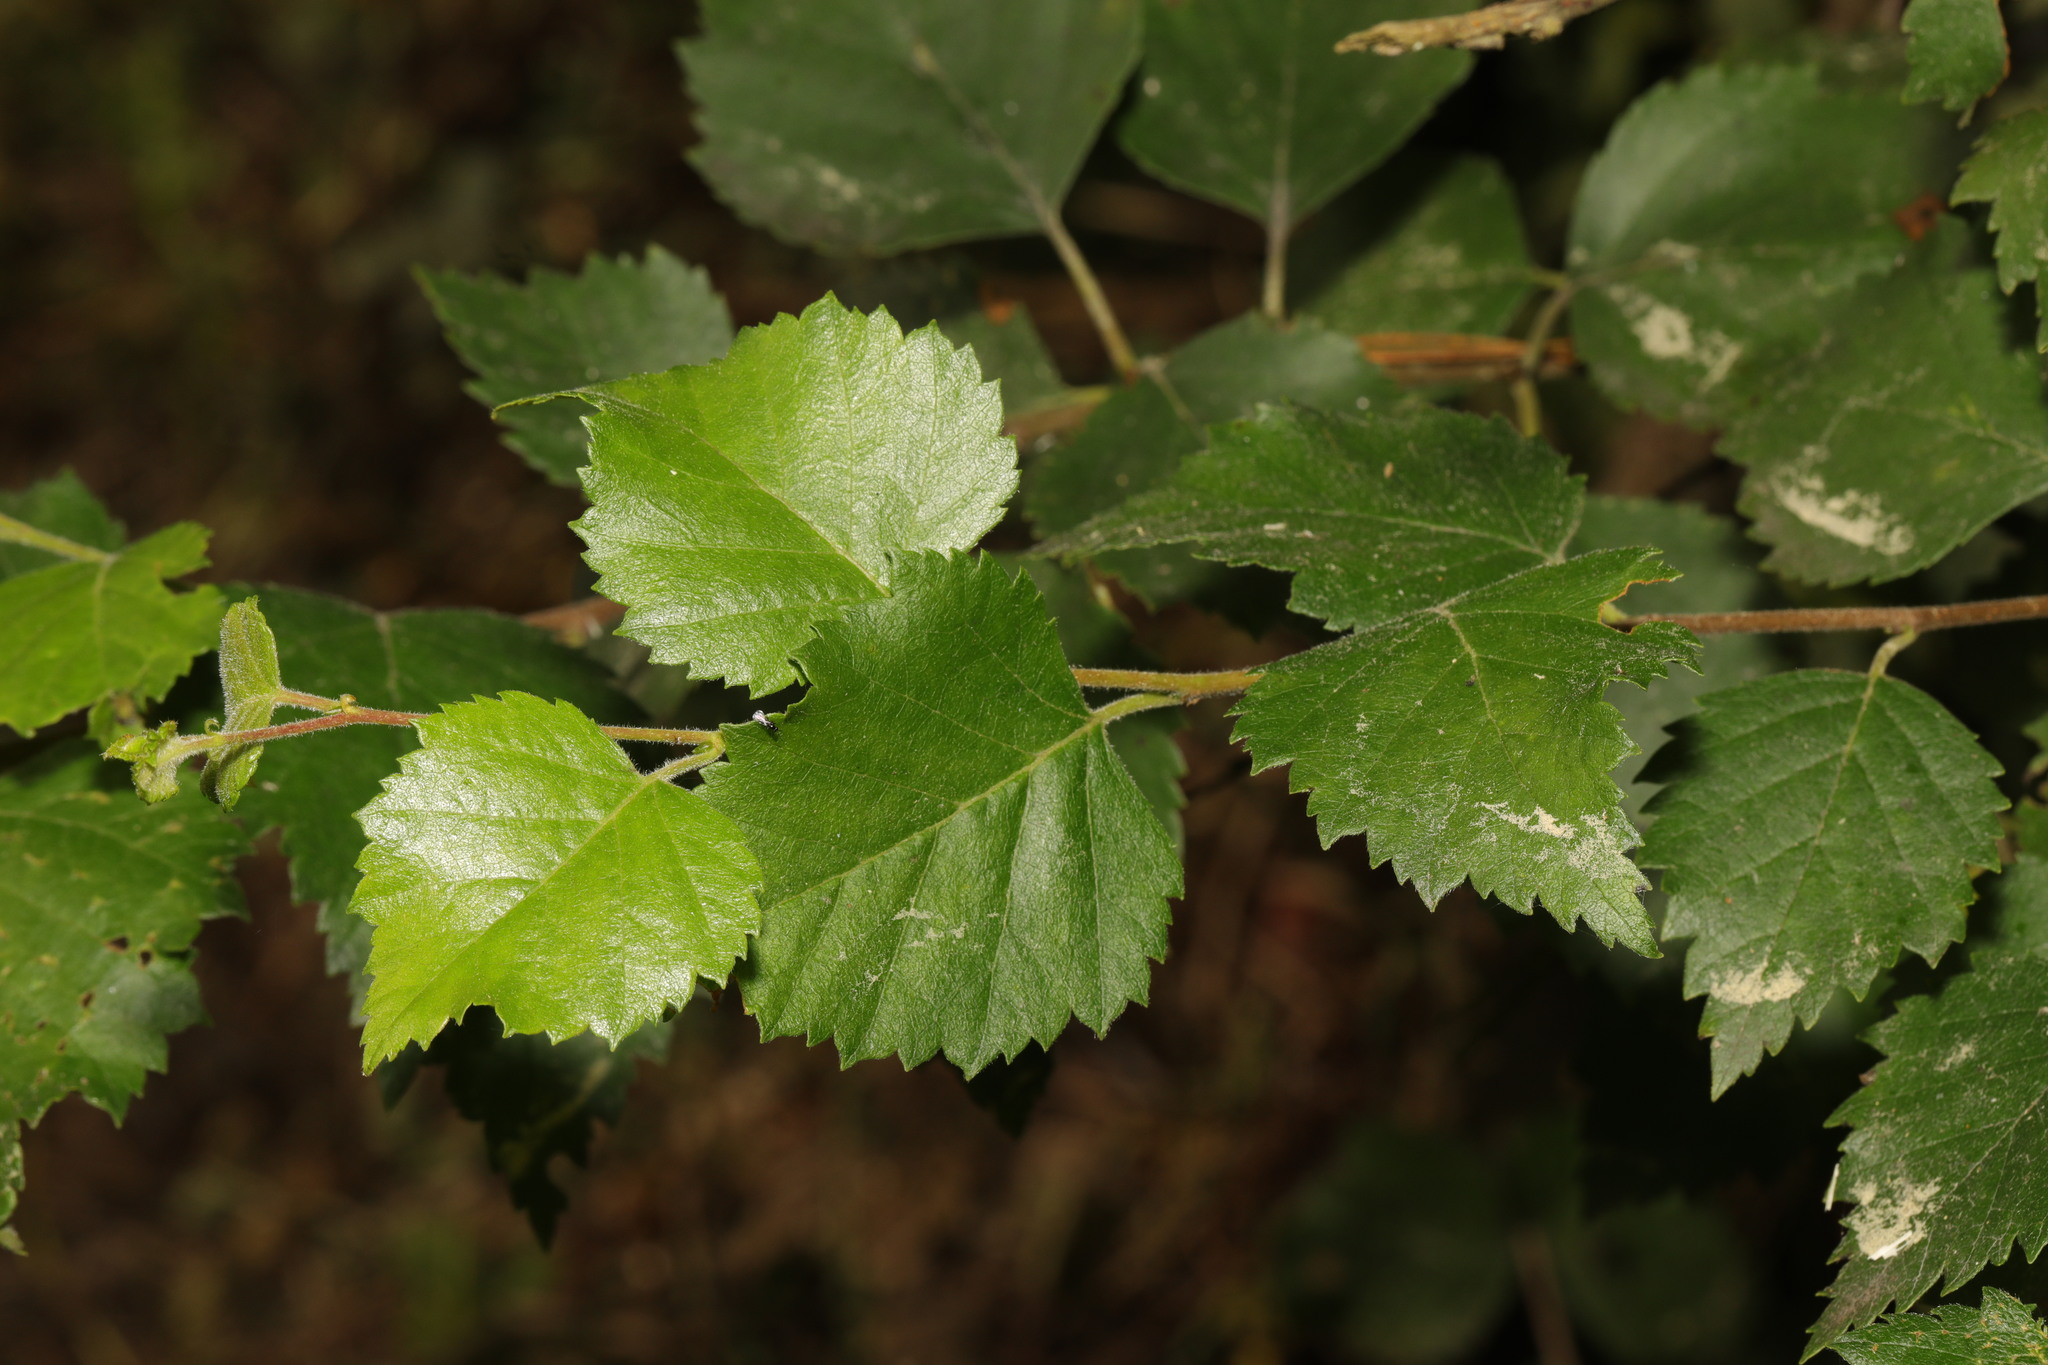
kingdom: Plantae
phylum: Tracheophyta
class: Magnoliopsida
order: Fagales
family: Betulaceae
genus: Betula
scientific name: Betula pubescens
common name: Downy birch
